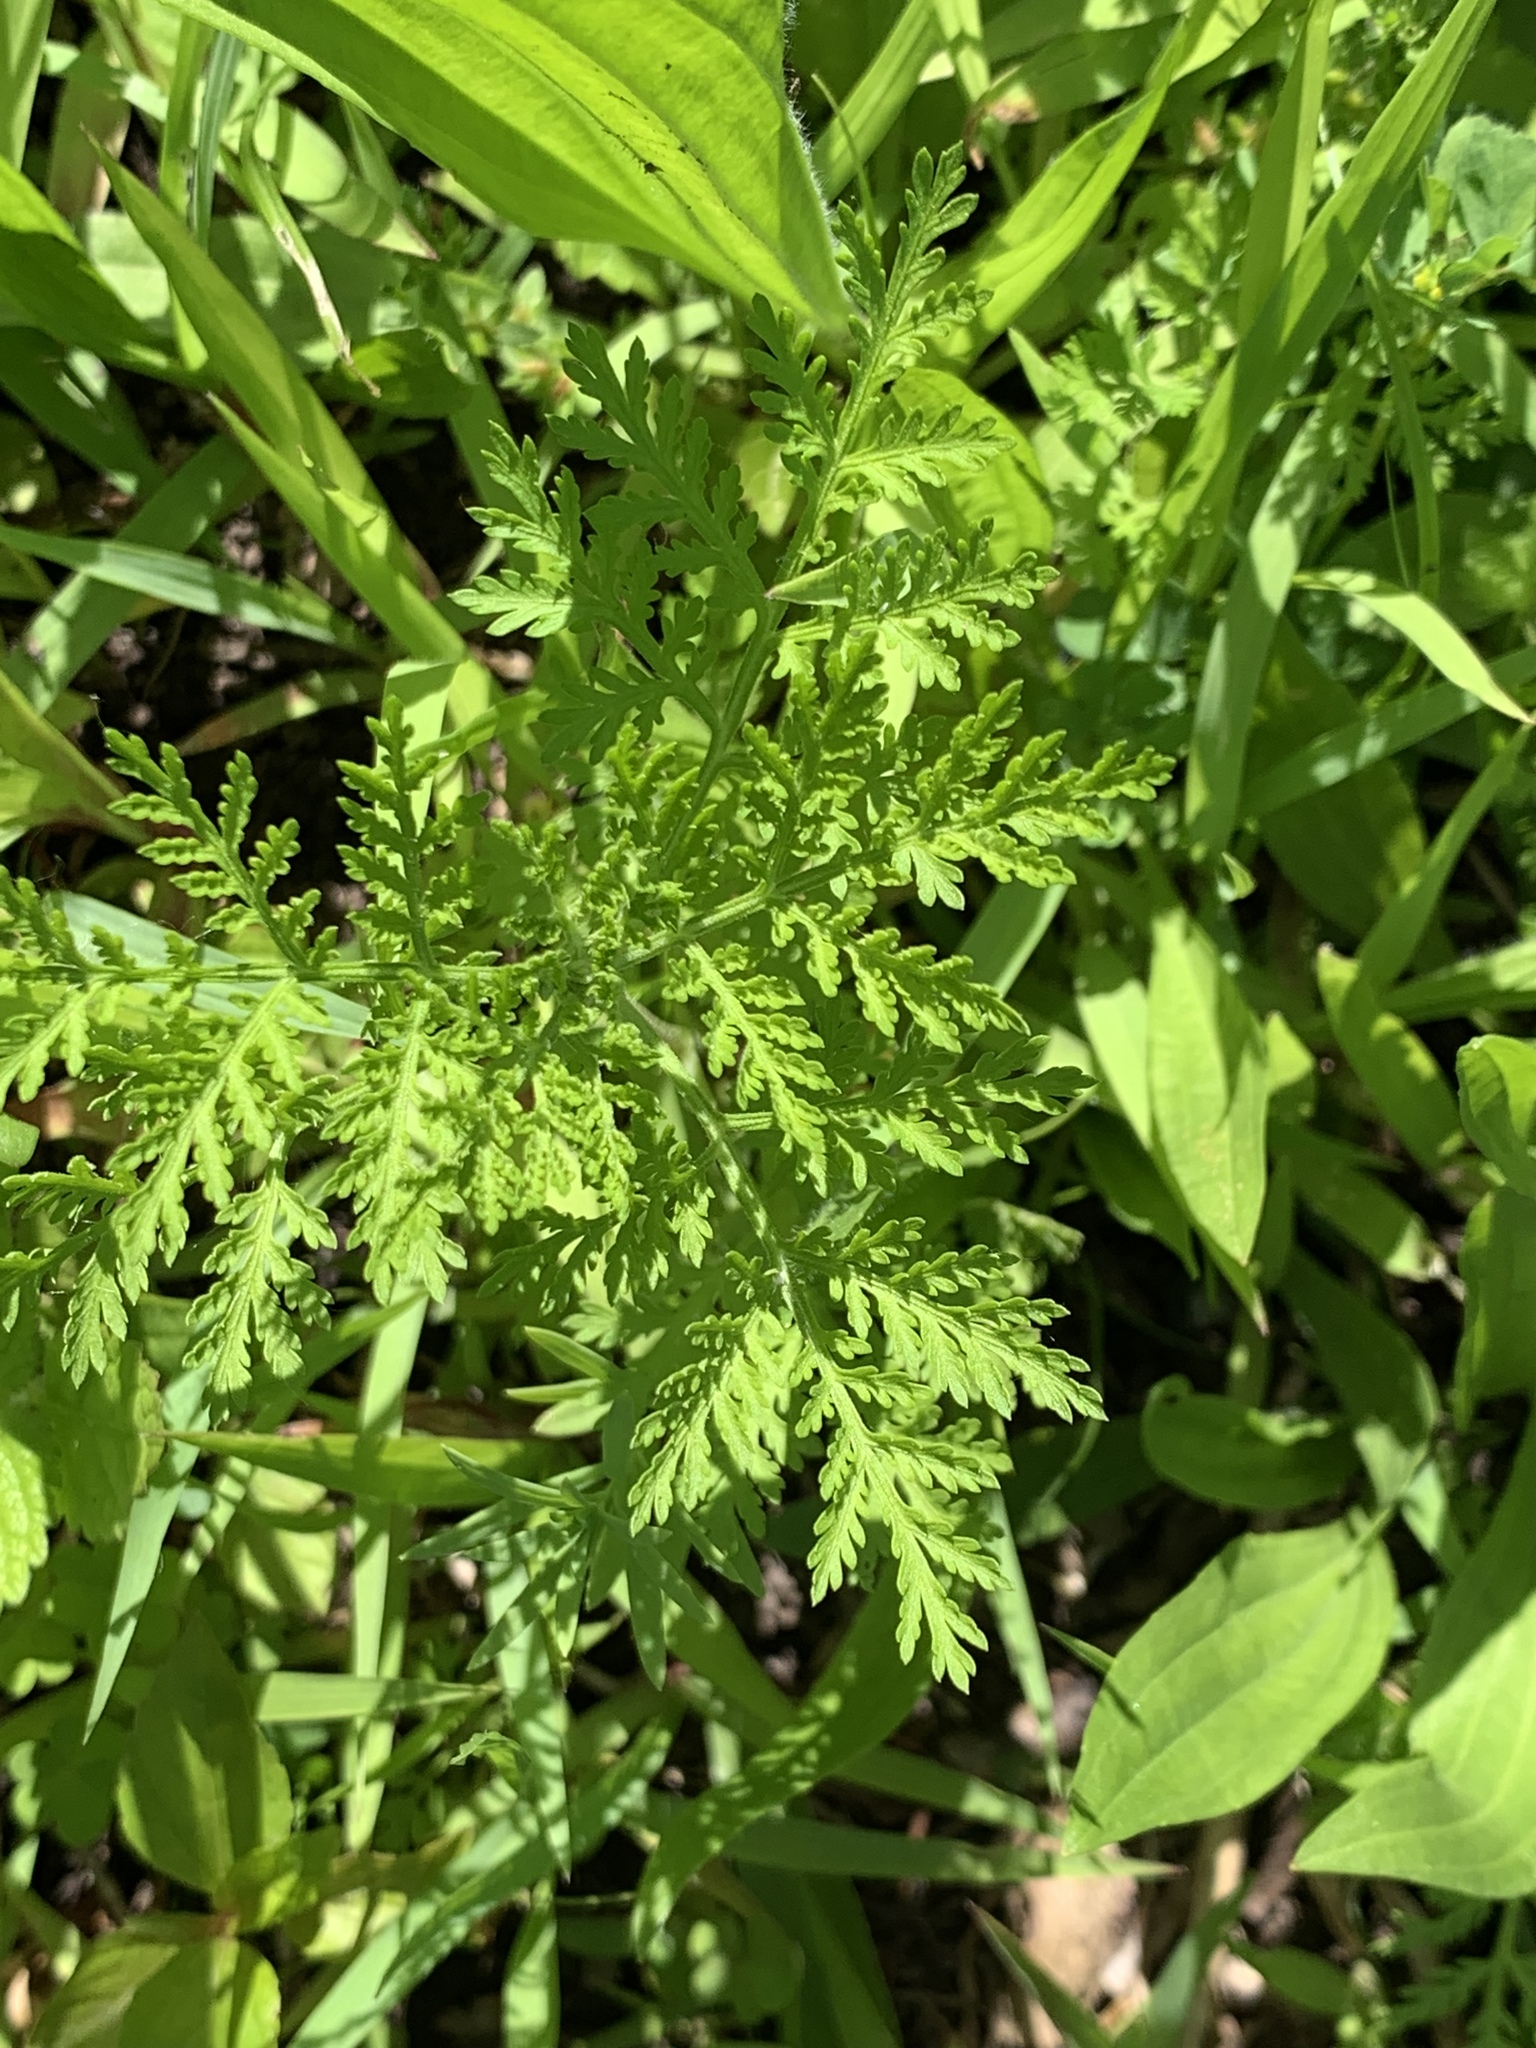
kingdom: Plantae
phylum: Tracheophyta
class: Magnoliopsida
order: Asterales
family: Asteraceae
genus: Artemisia
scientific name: Artemisia annua
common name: Sweet sagewort
